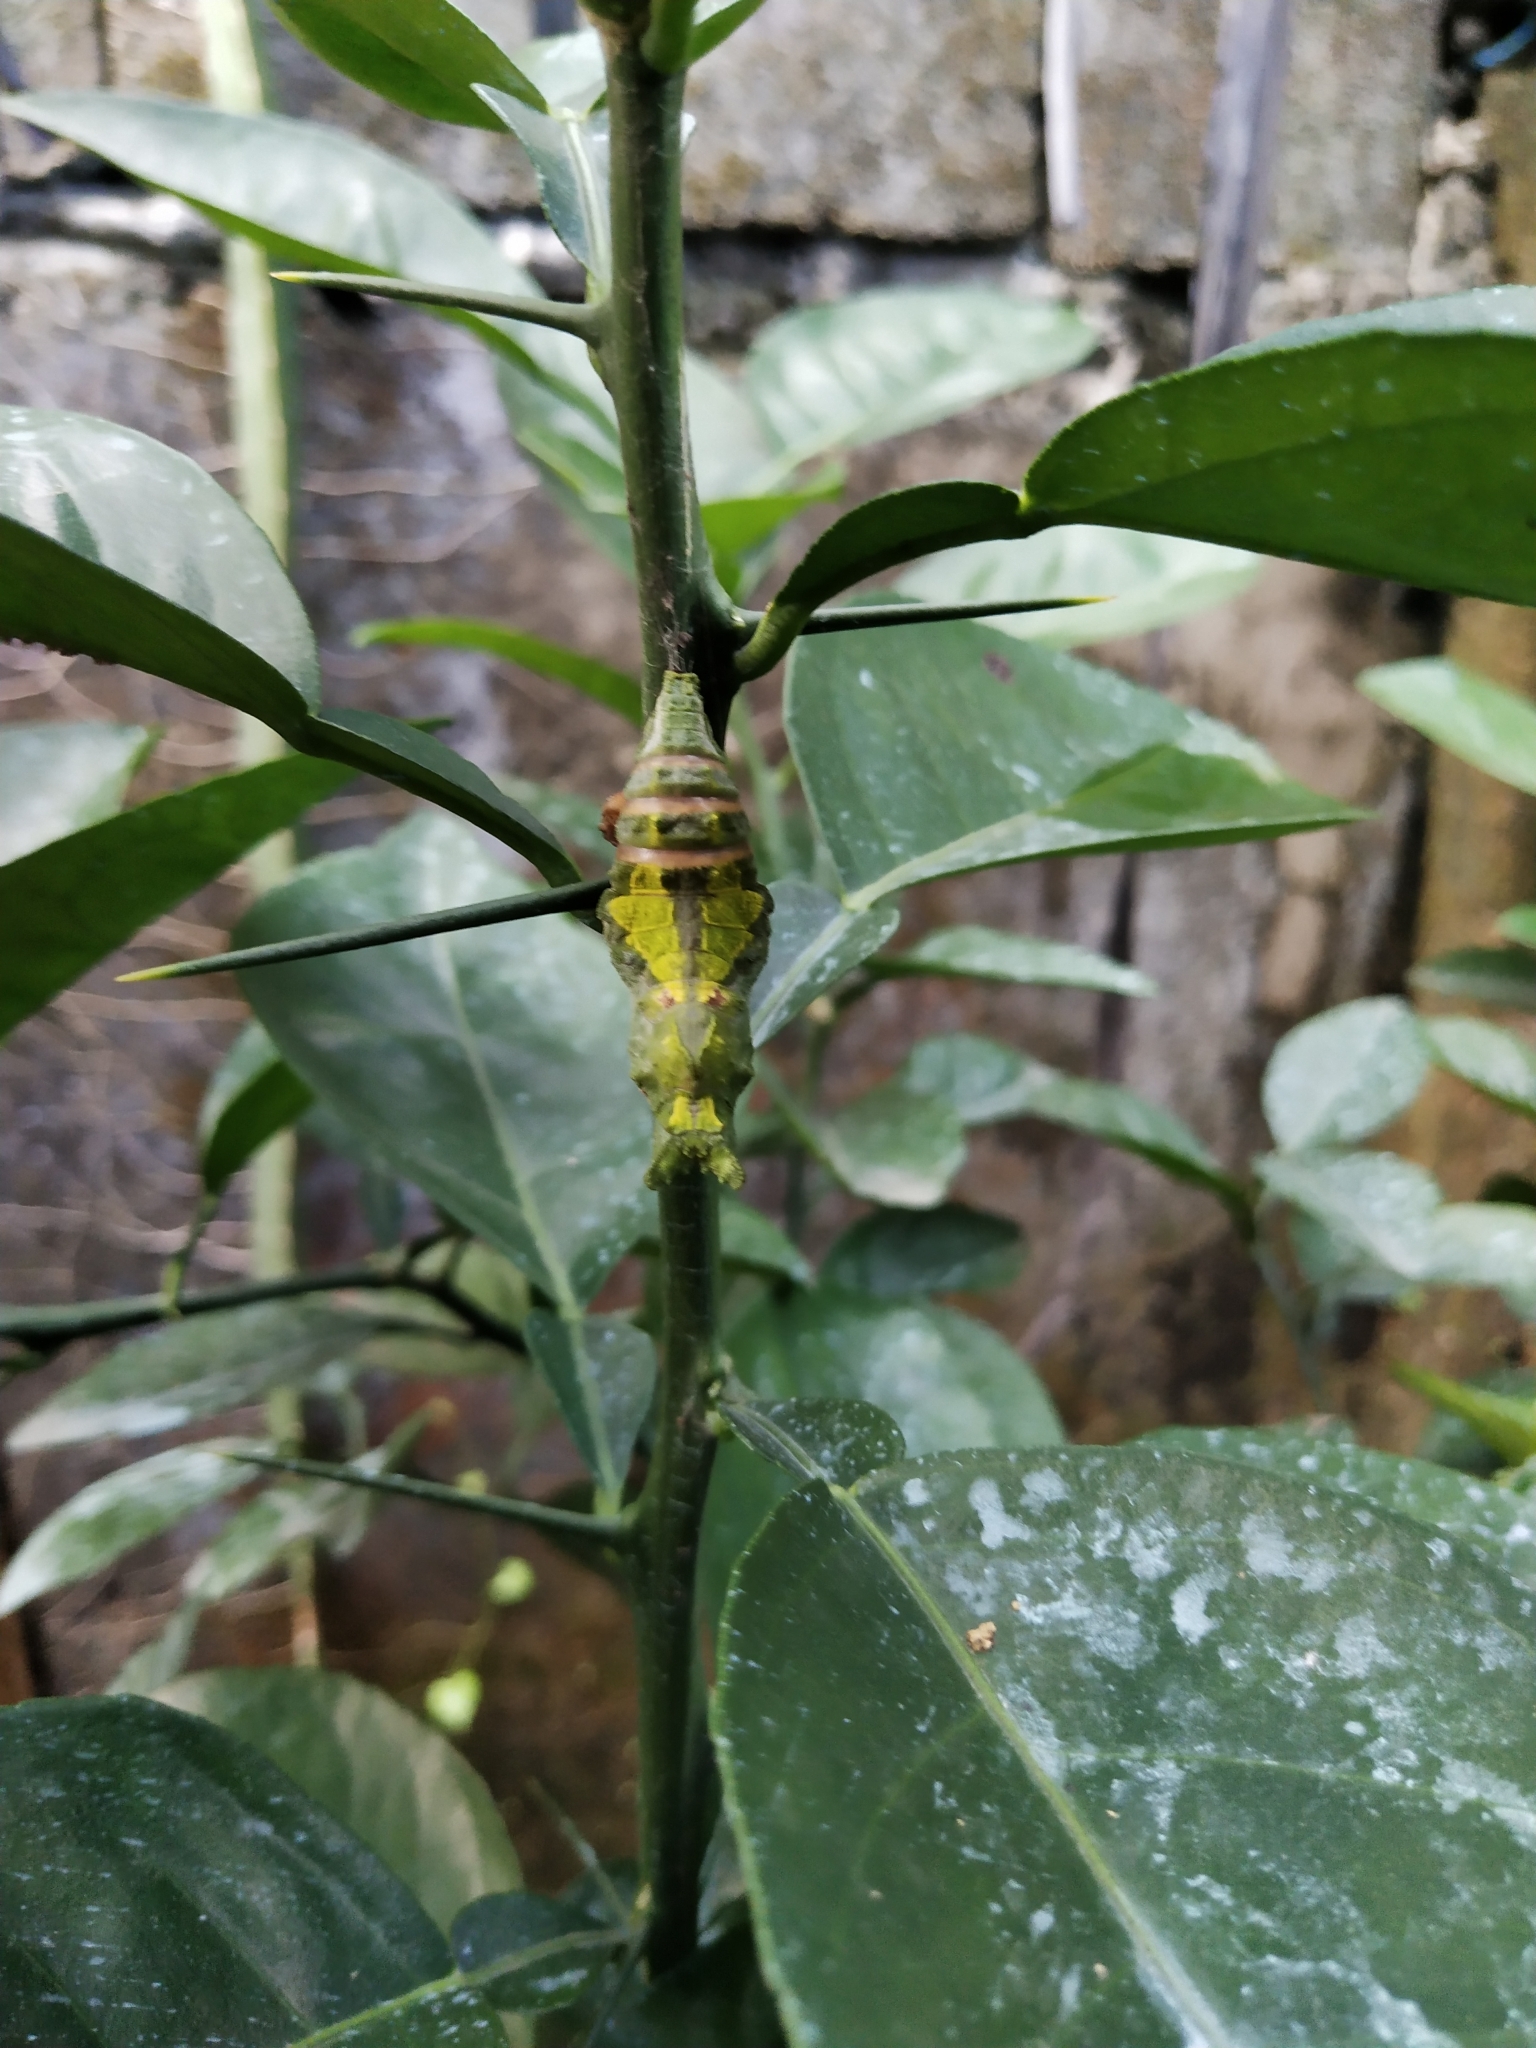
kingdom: Animalia
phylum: Arthropoda
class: Insecta
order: Lepidoptera
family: Papilionidae
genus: Papilio
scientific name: Papilio demoleus
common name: Lime butterfly
